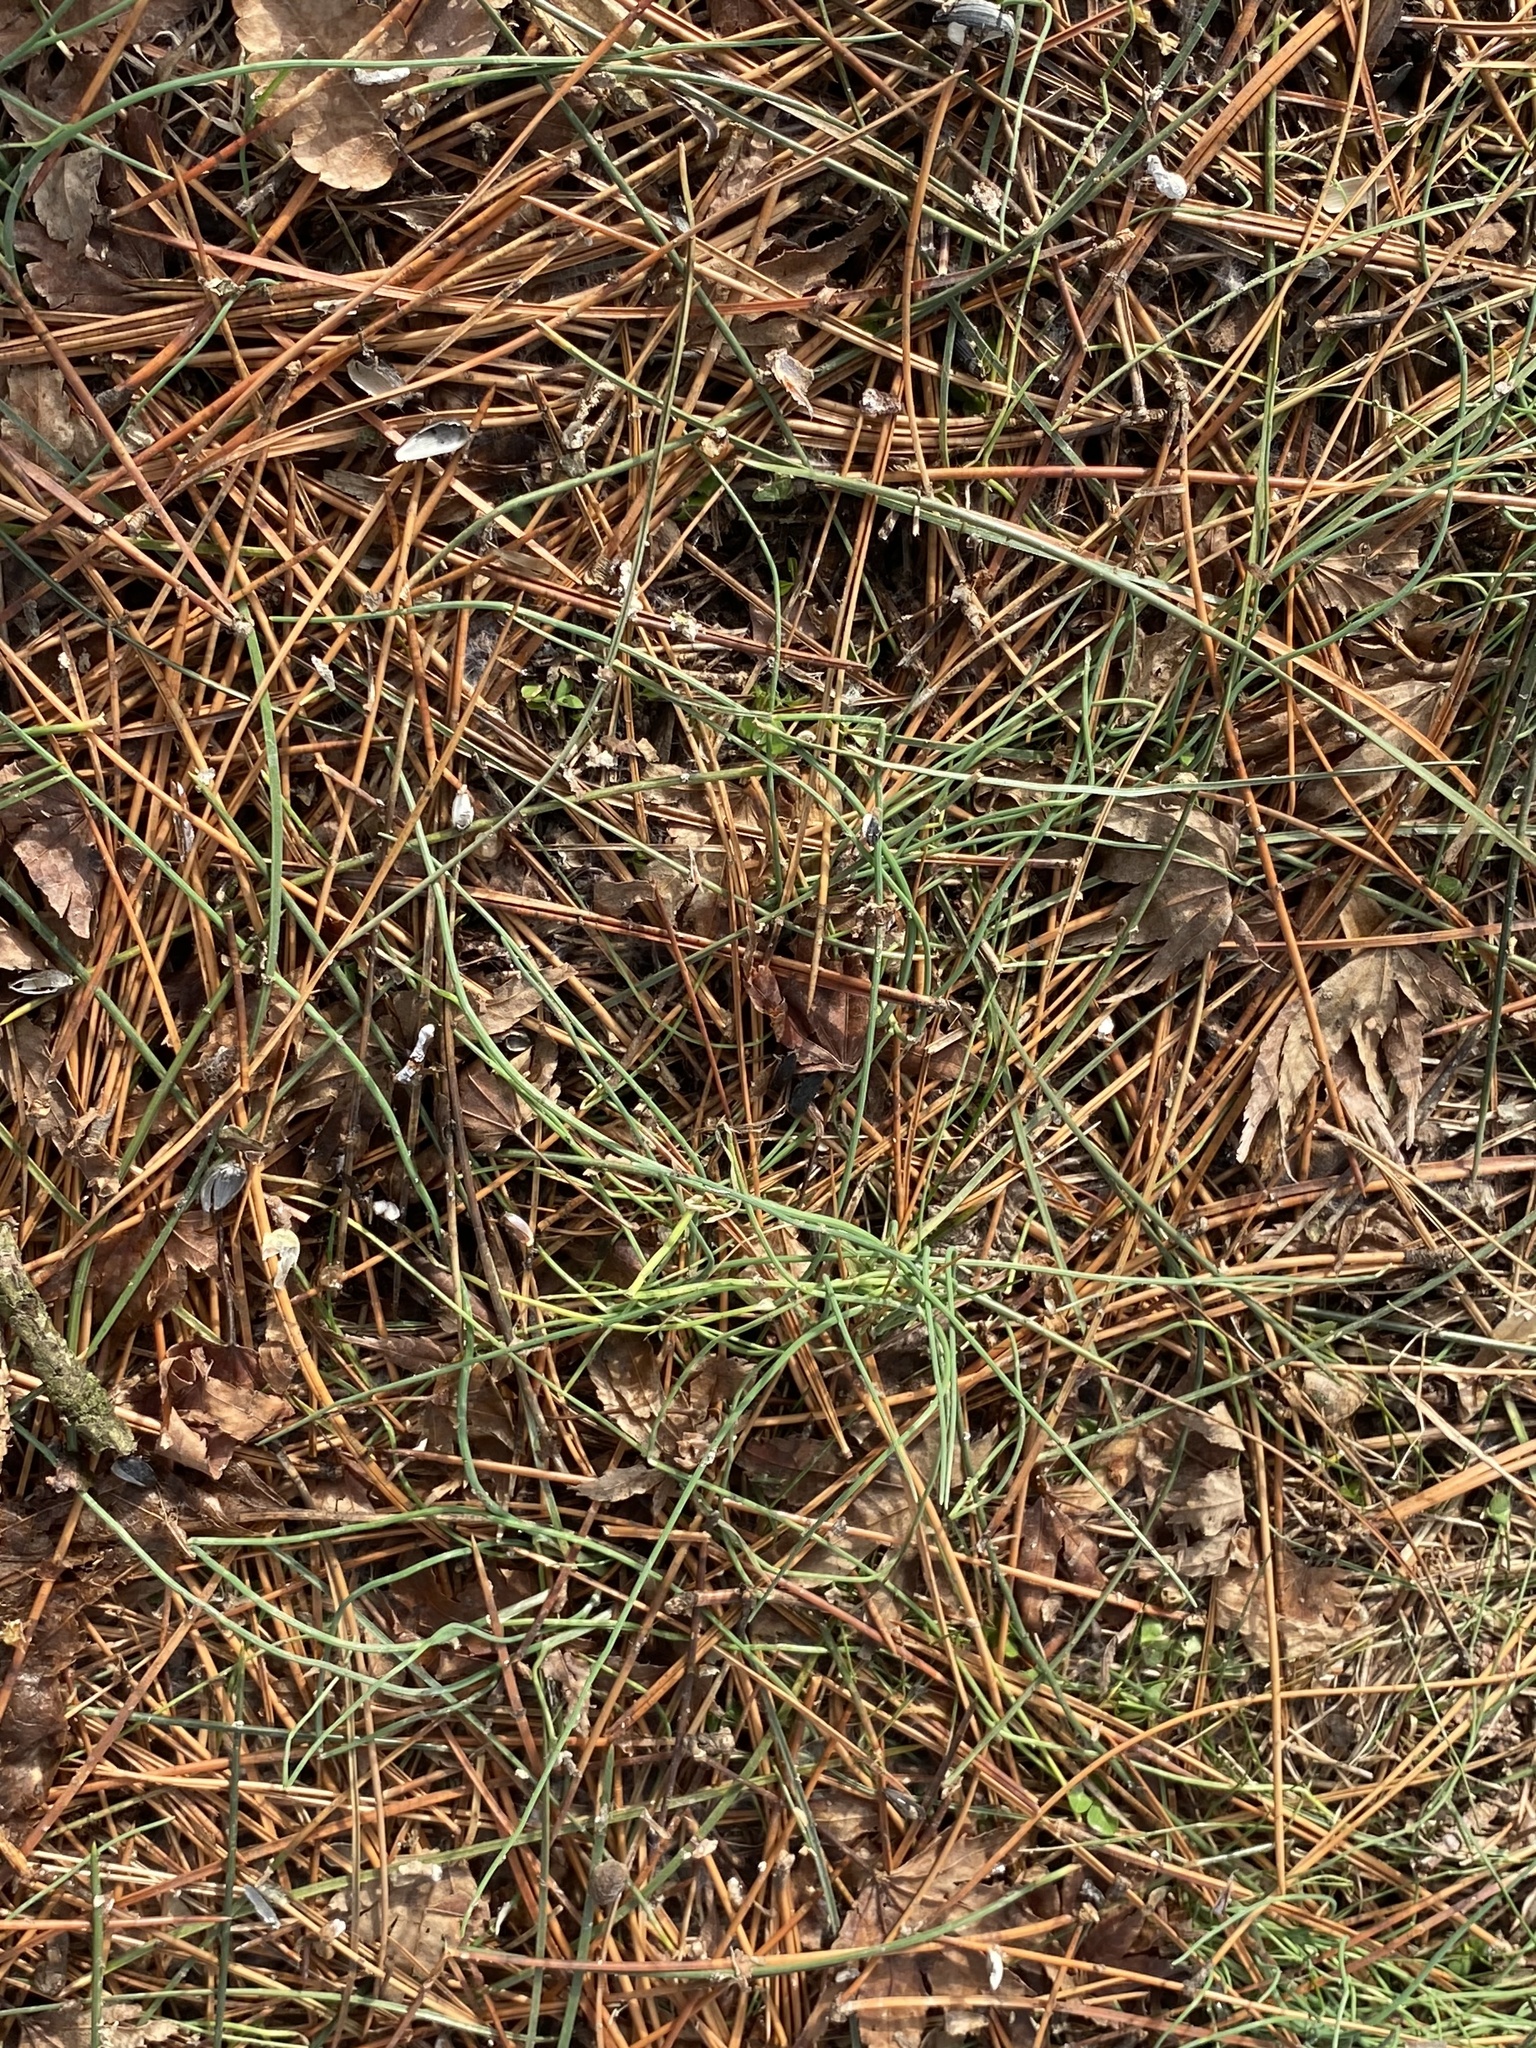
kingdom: Plantae
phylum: Tracheophyta
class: Liliopsida
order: Asparagales
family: Amaryllidaceae
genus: Allium
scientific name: Allium vineale
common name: Crow garlic
